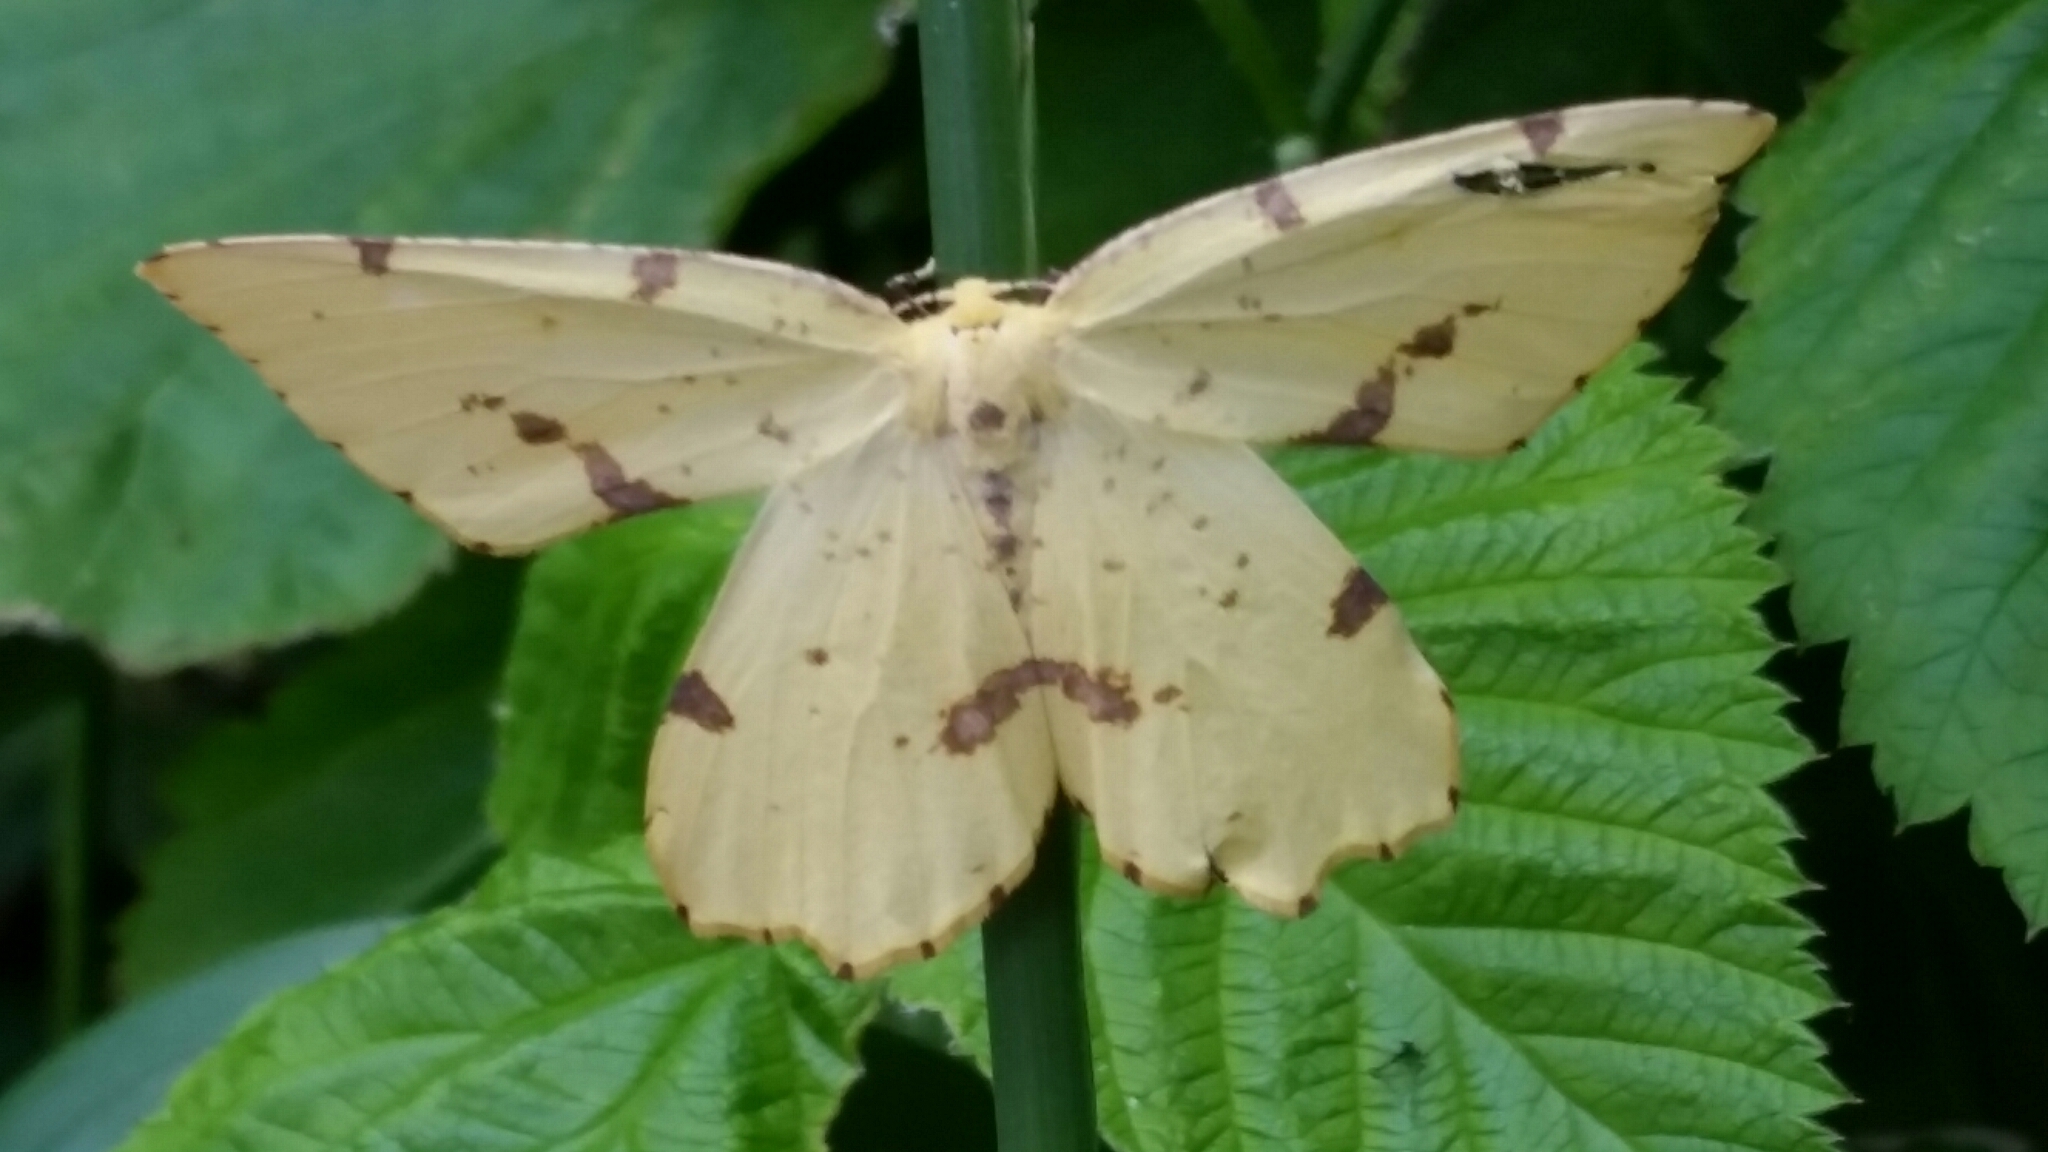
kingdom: Animalia
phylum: Arthropoda
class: Insecta
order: Lepidoptera
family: Geometridae
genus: Xanthotype
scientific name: Xanthotype
